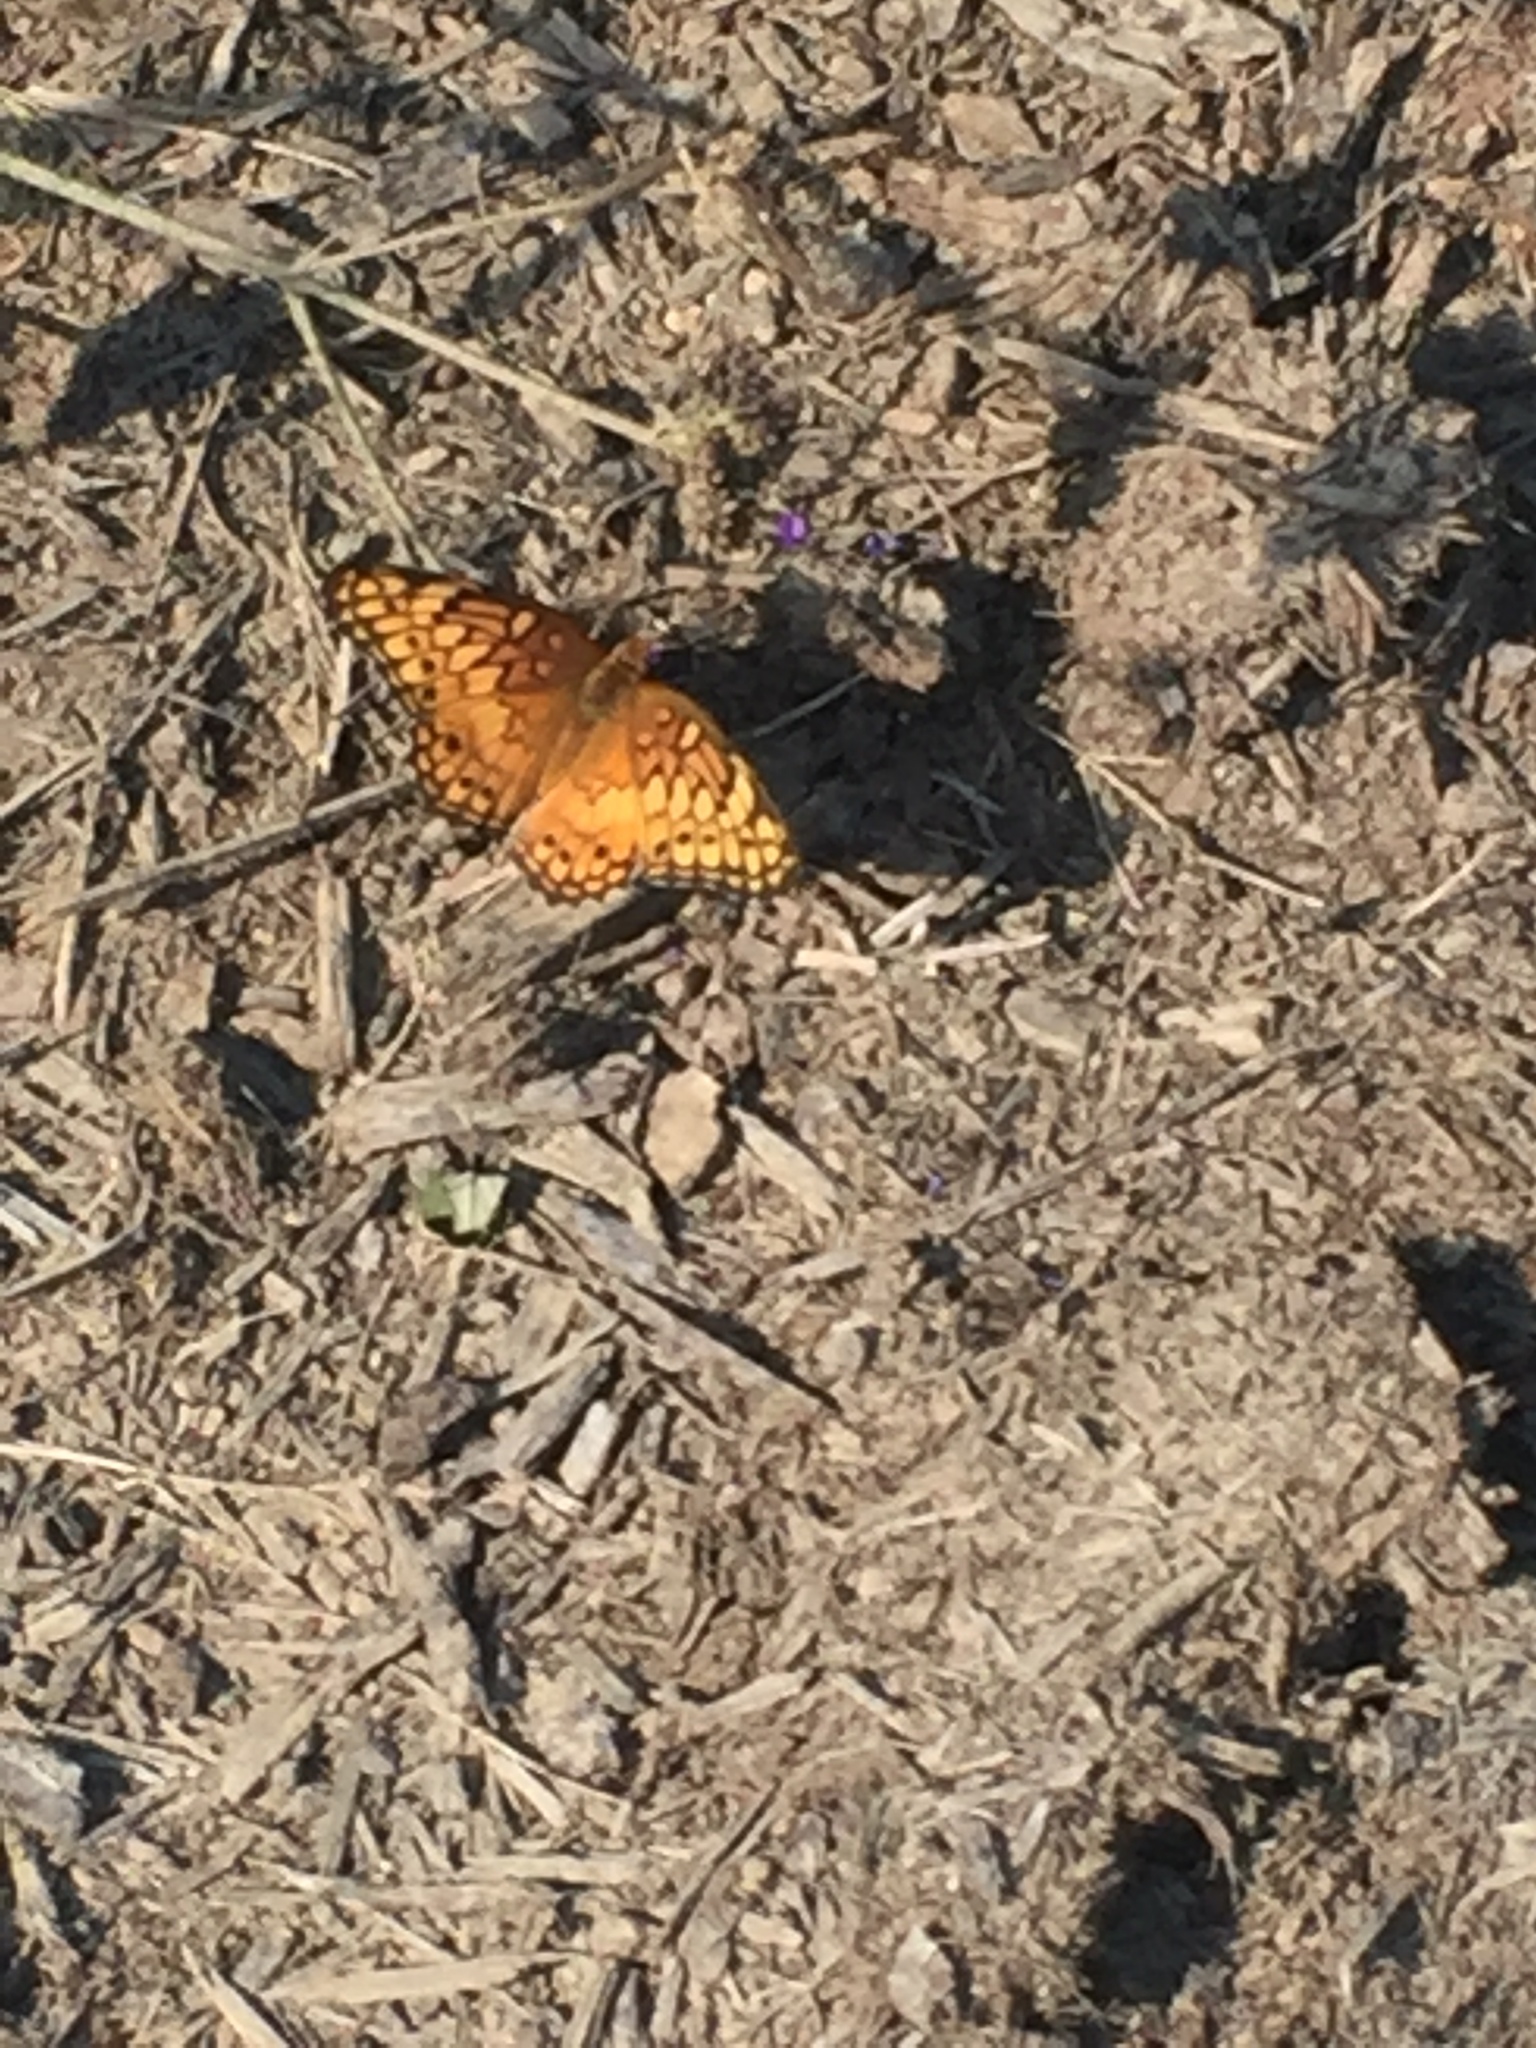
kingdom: Animalia
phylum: Arthropoda
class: Insecta
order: Lepidoptera
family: Nymphalidae
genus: Euptoieta
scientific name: Euptoieta claudia
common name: Variegated fritillary
